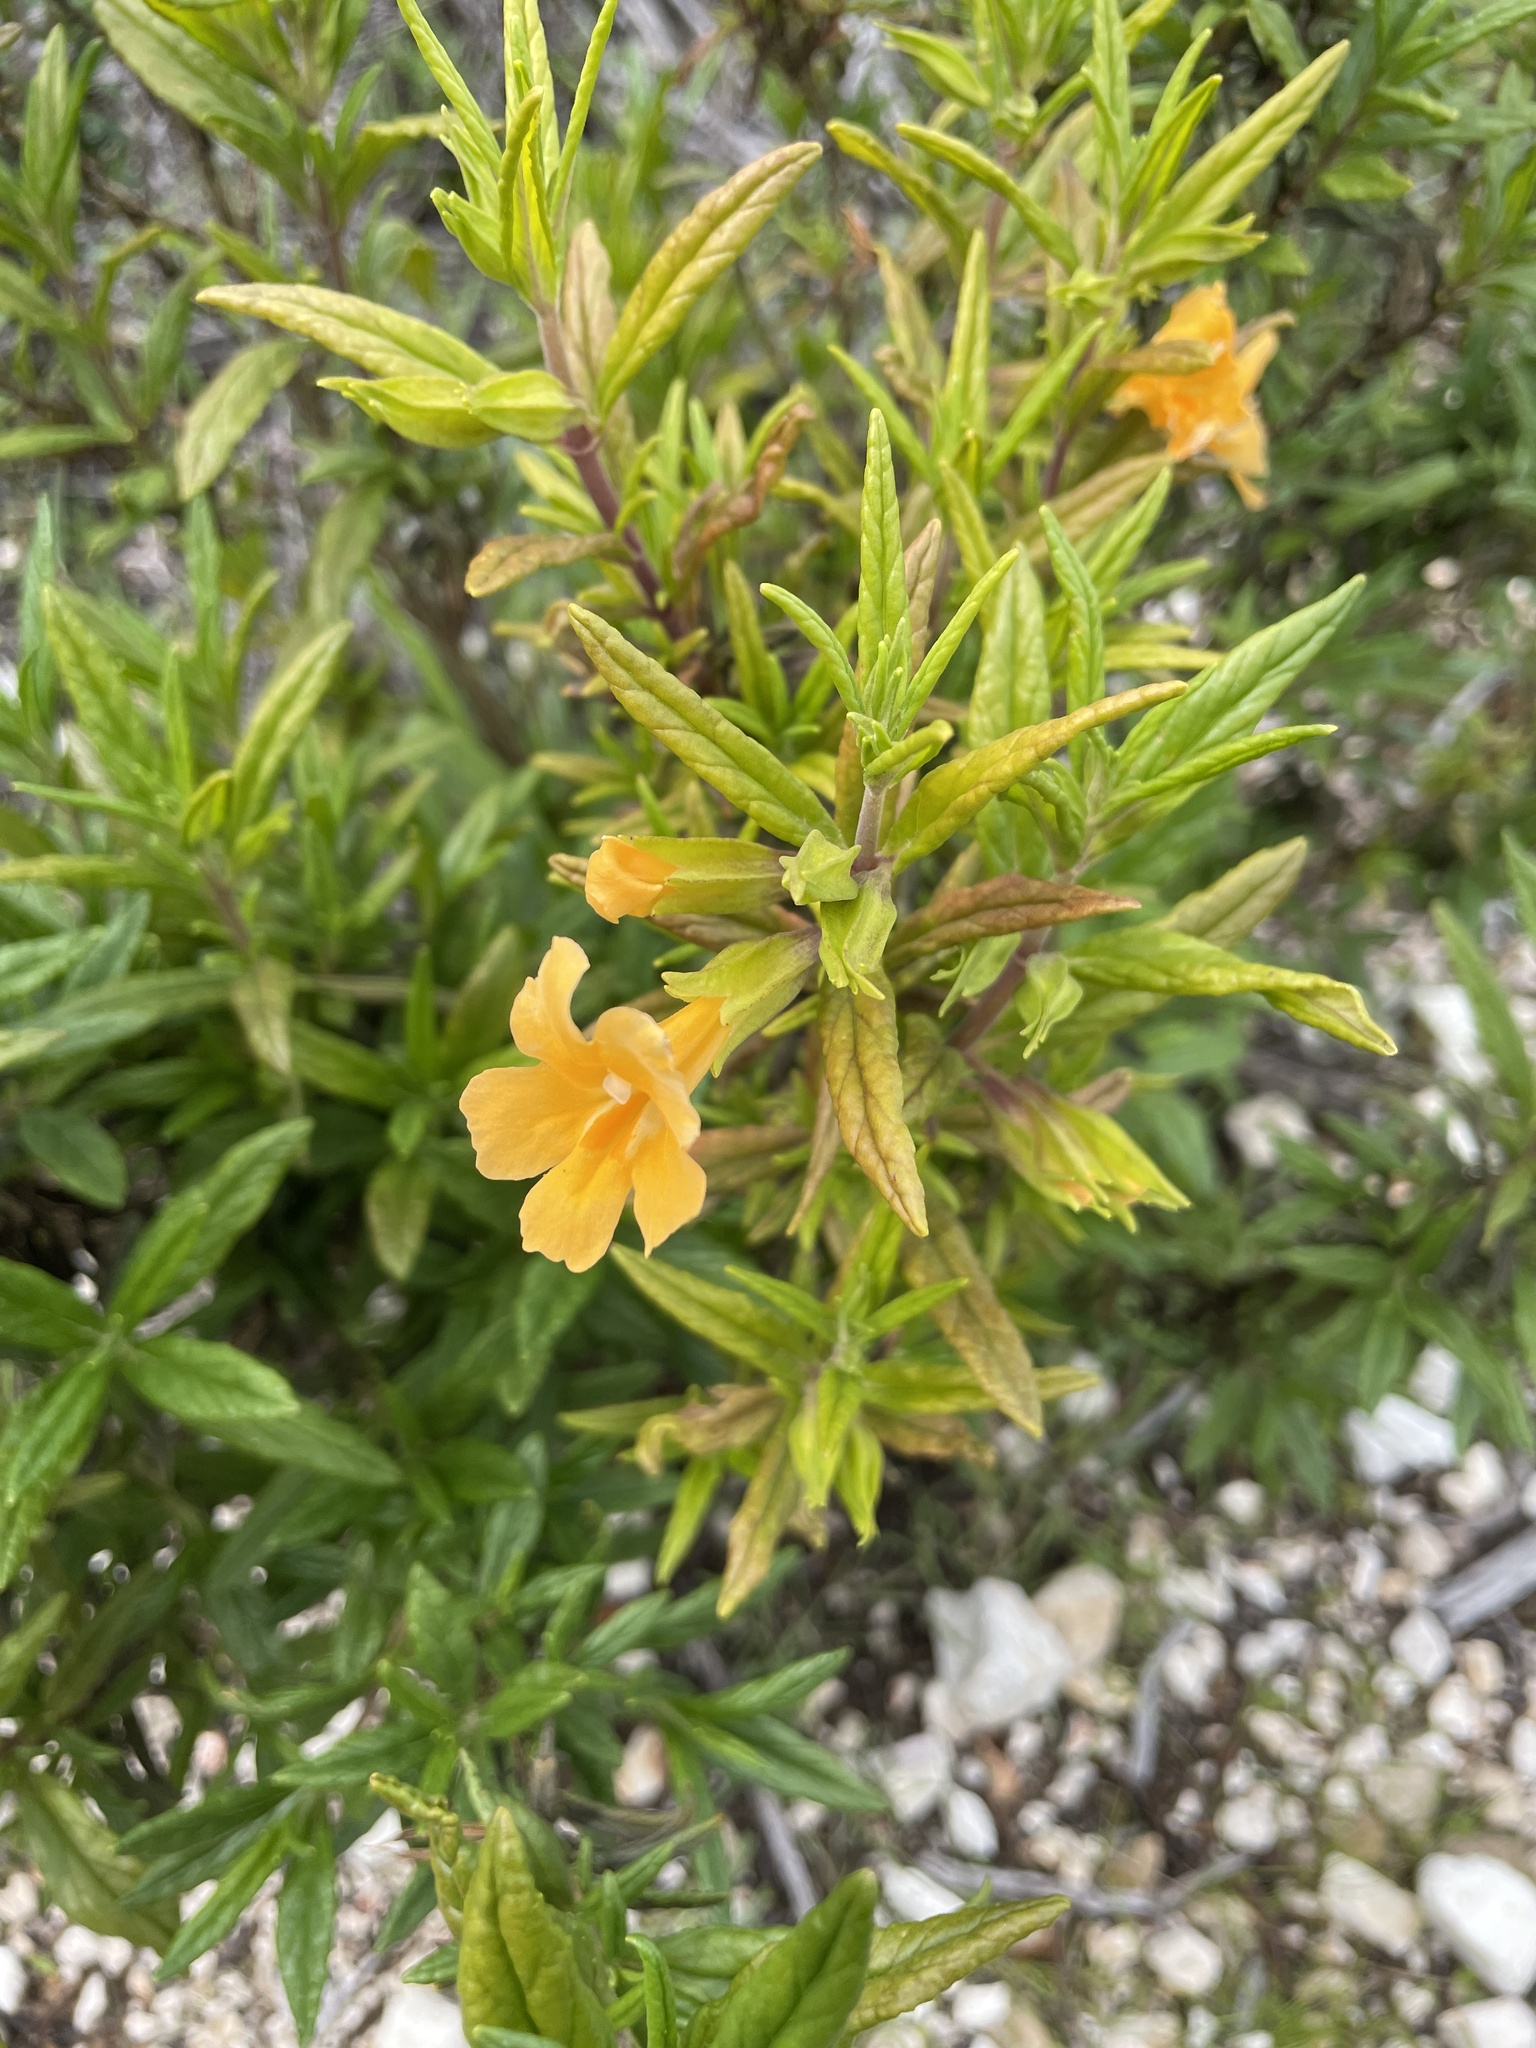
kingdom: Plantae
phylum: Tracheophyta
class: Magnoliopsida
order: Lamiales
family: Phrymaceae
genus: Diplacus
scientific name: Diplacus aurantiacus
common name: Bush monkey-flower
